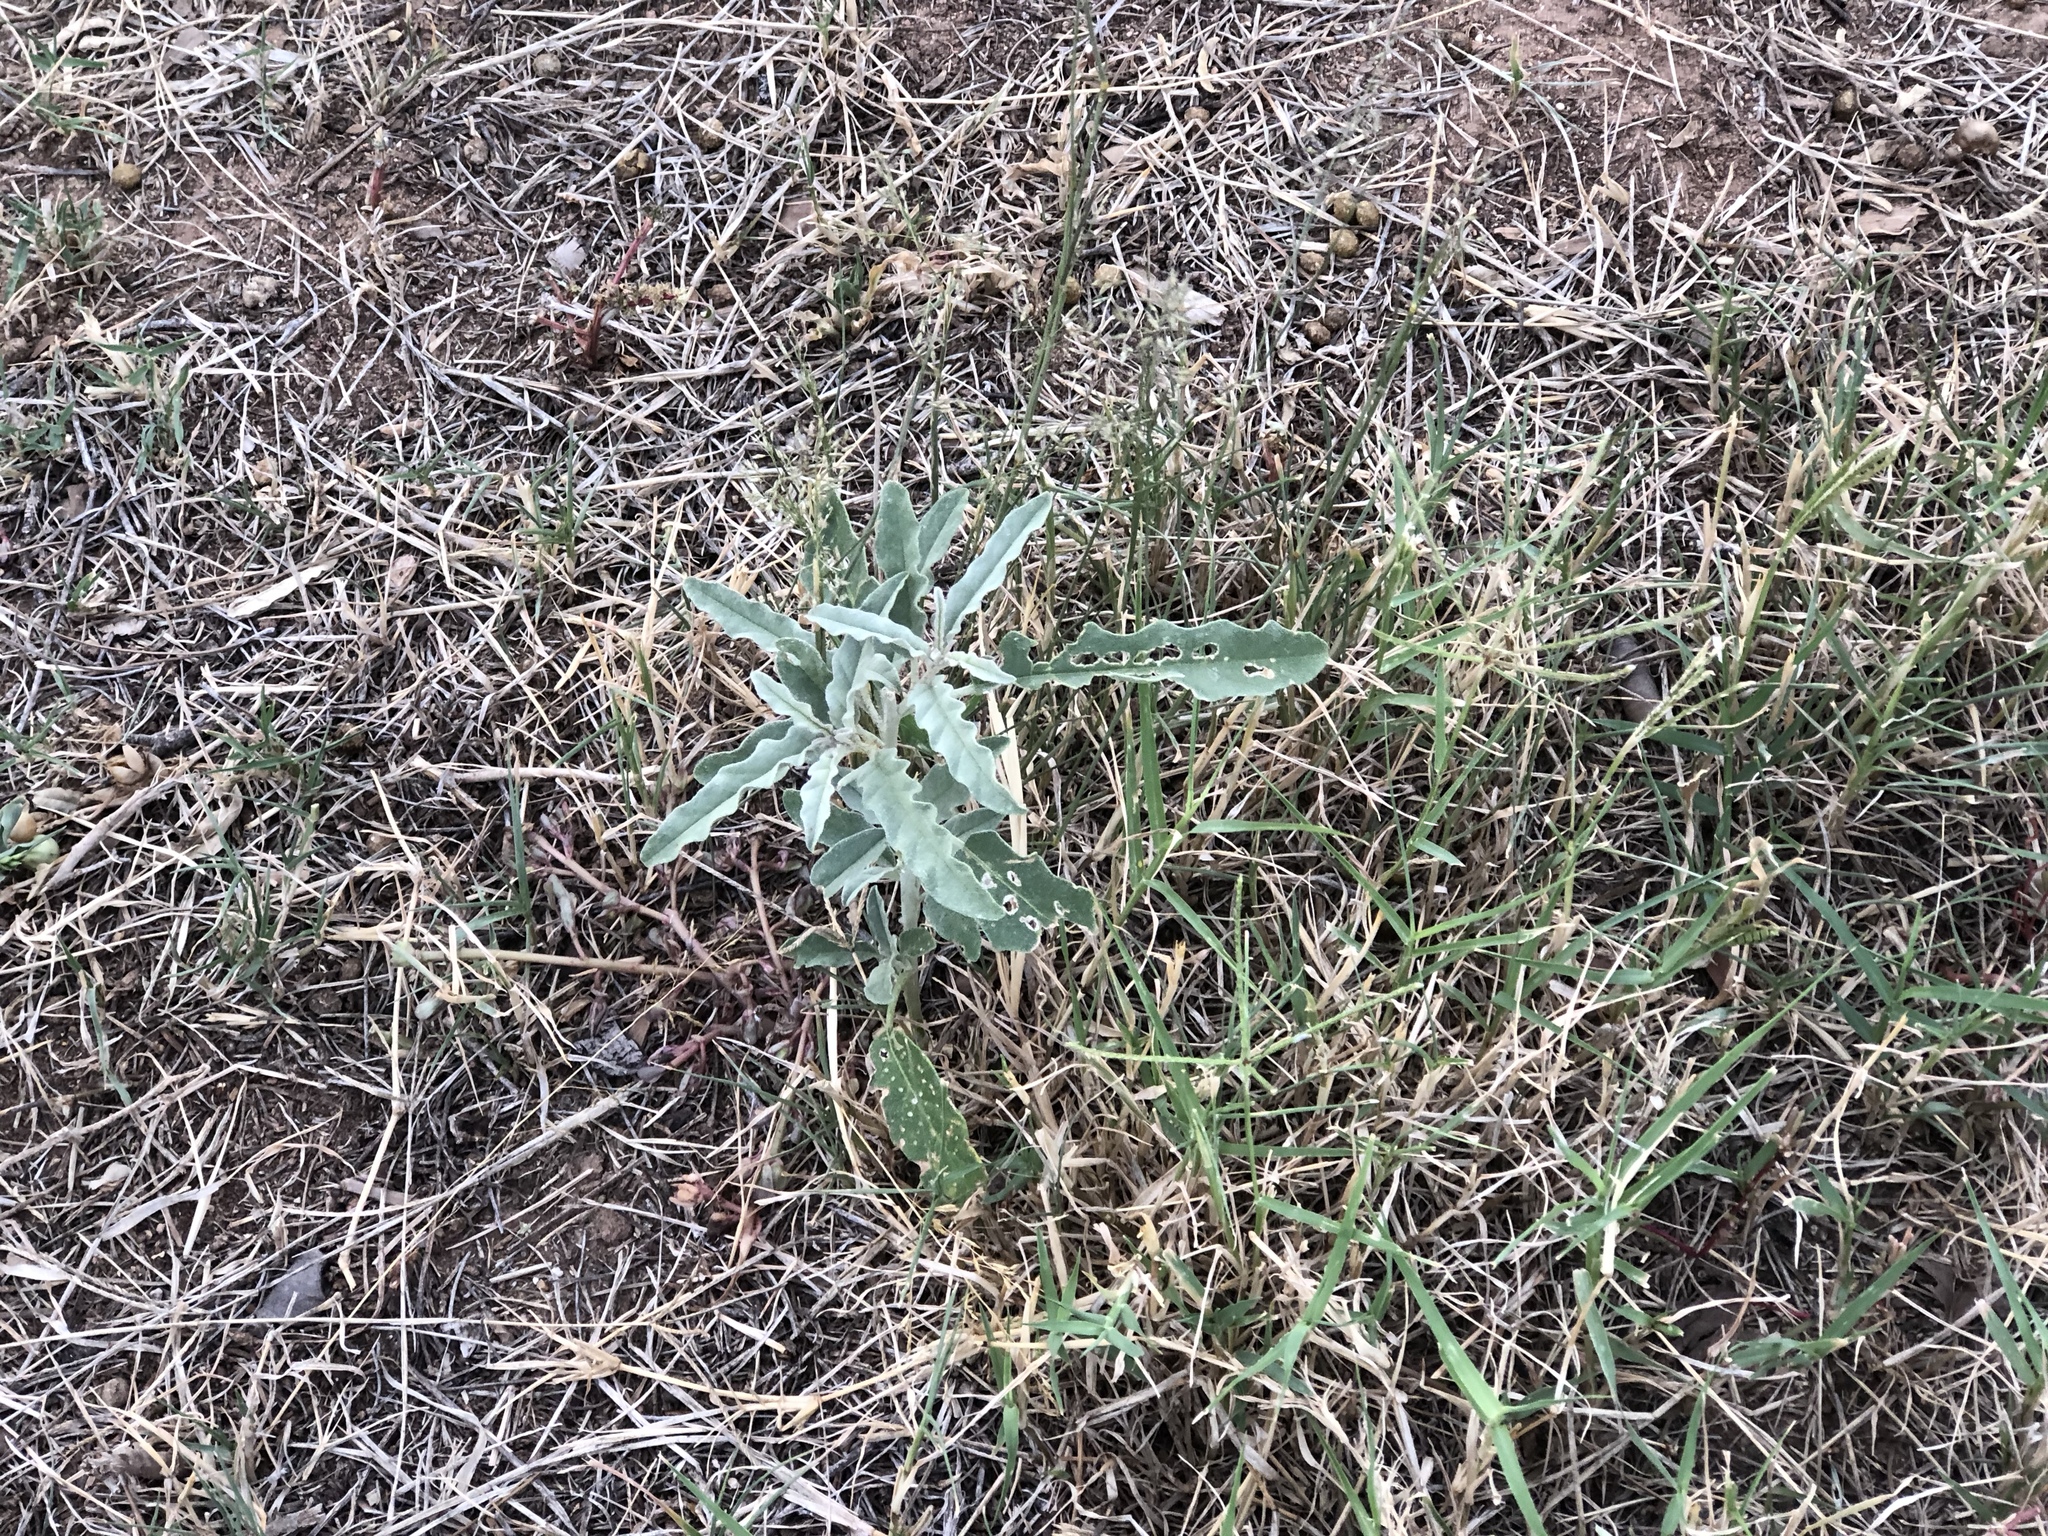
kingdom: Plantae
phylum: Tracheophyta
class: Magnoliopsida
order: Solanales
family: Solanaceae
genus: Solanum
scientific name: Solanum elaeagnifolium
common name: Silverleaf nightshade
